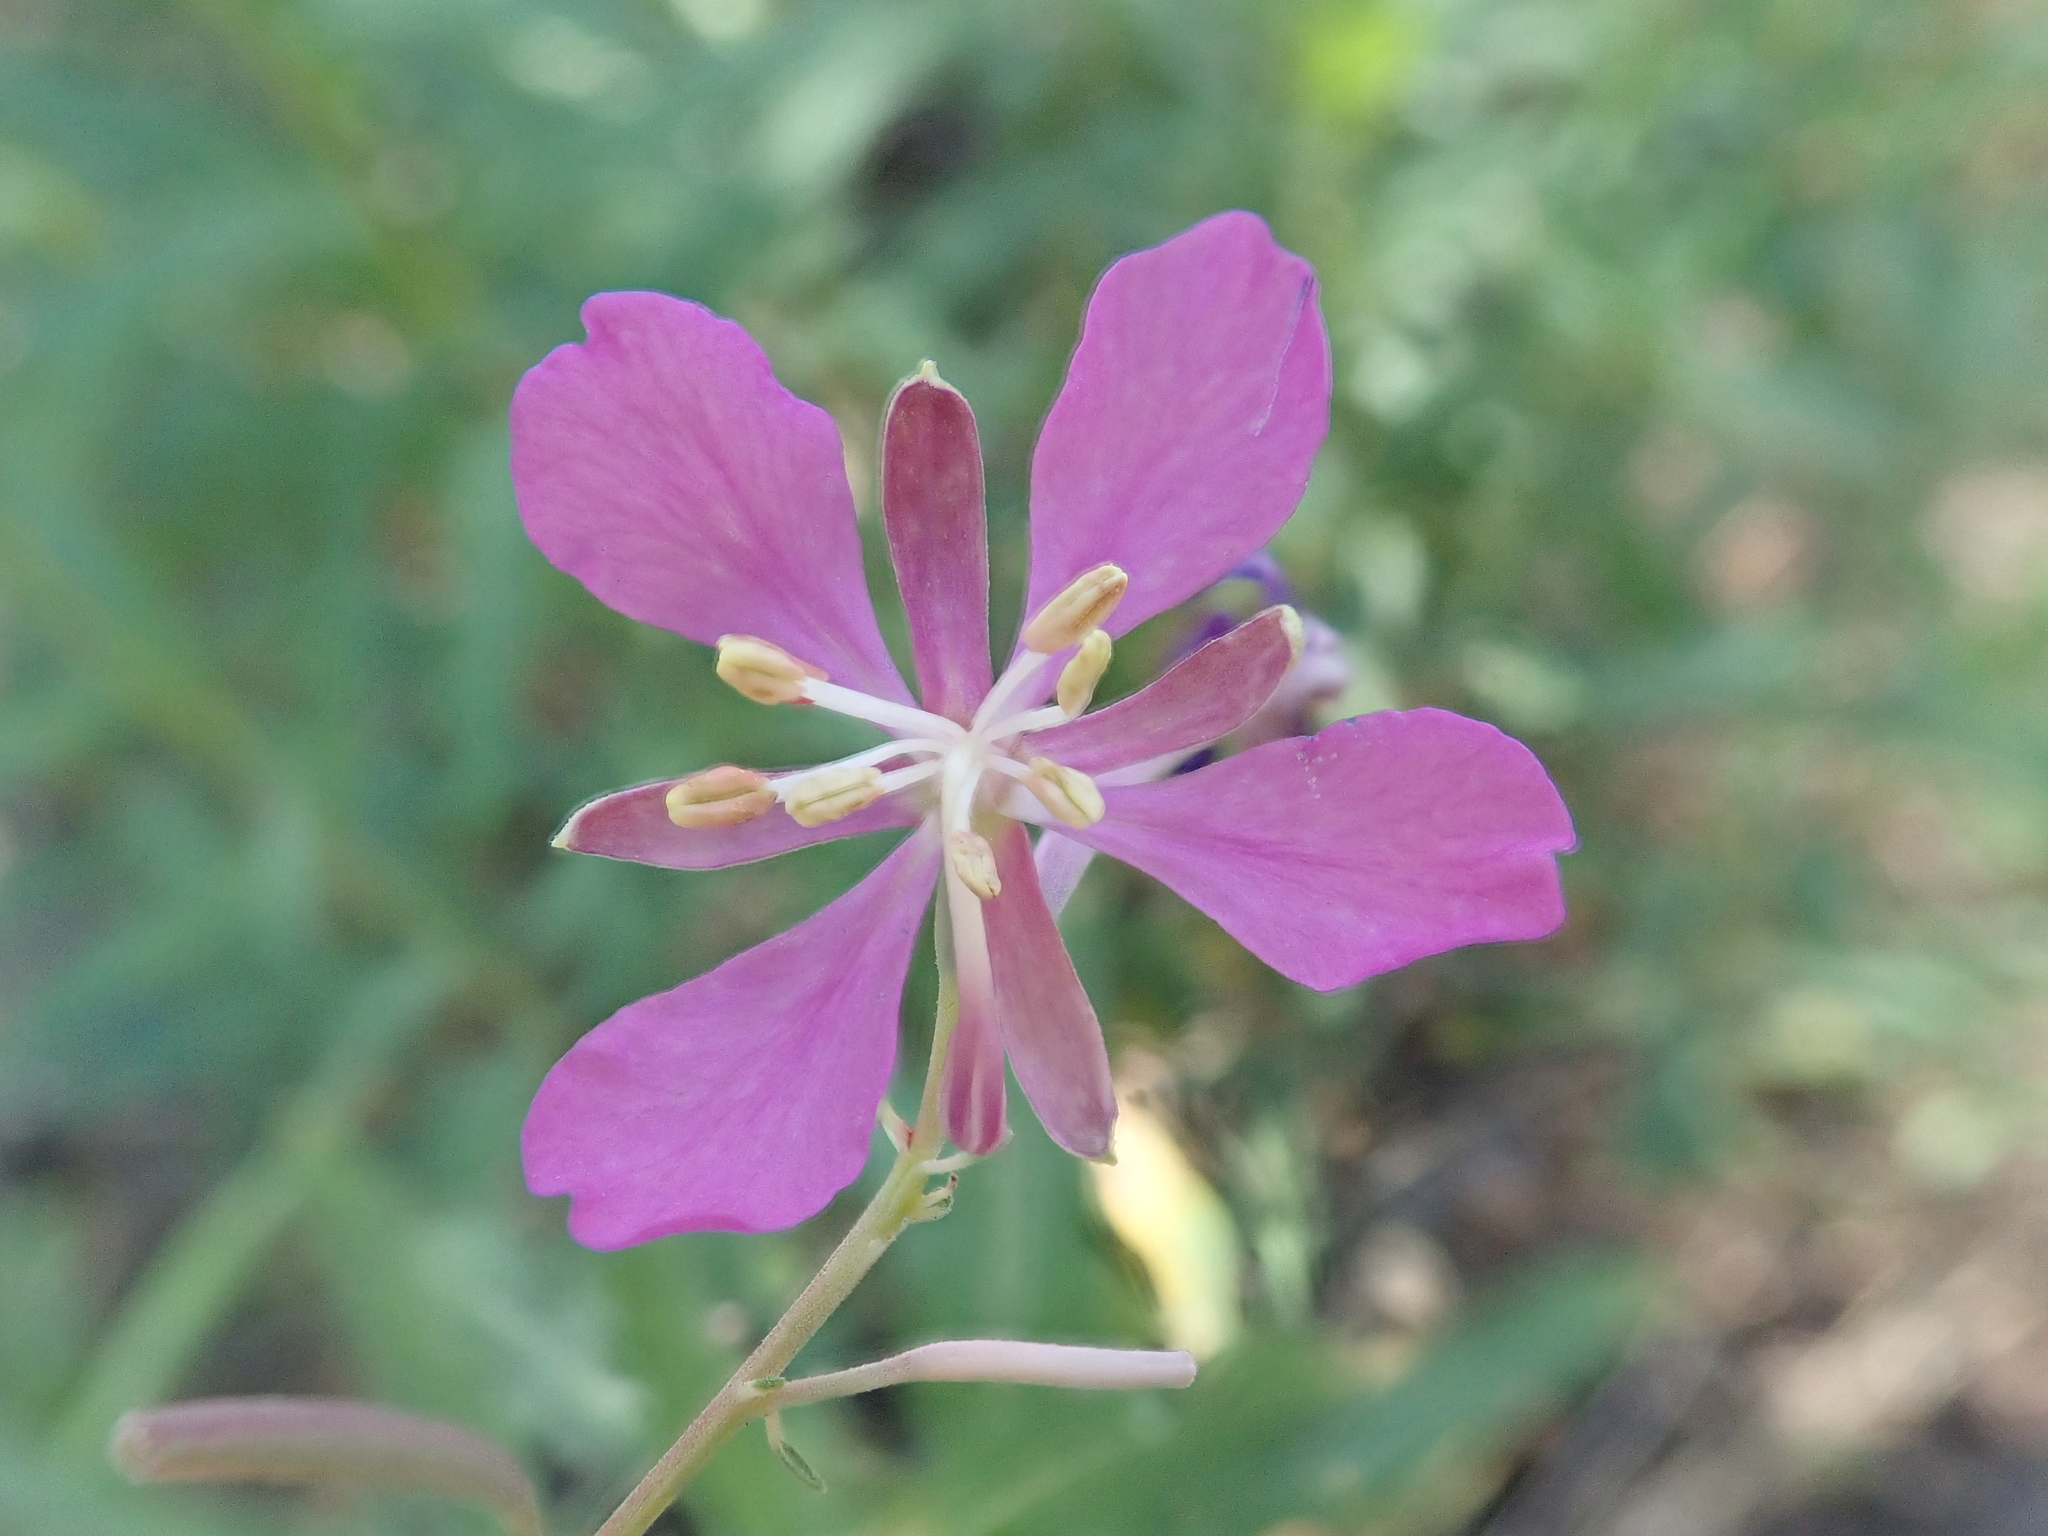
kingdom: Plantae
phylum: Tracheophyta
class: Magnoliopsida
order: Myrtales
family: Onagraceae
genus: Chamaenerion
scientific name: Chamaenerion angustifolium
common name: Fireweed
